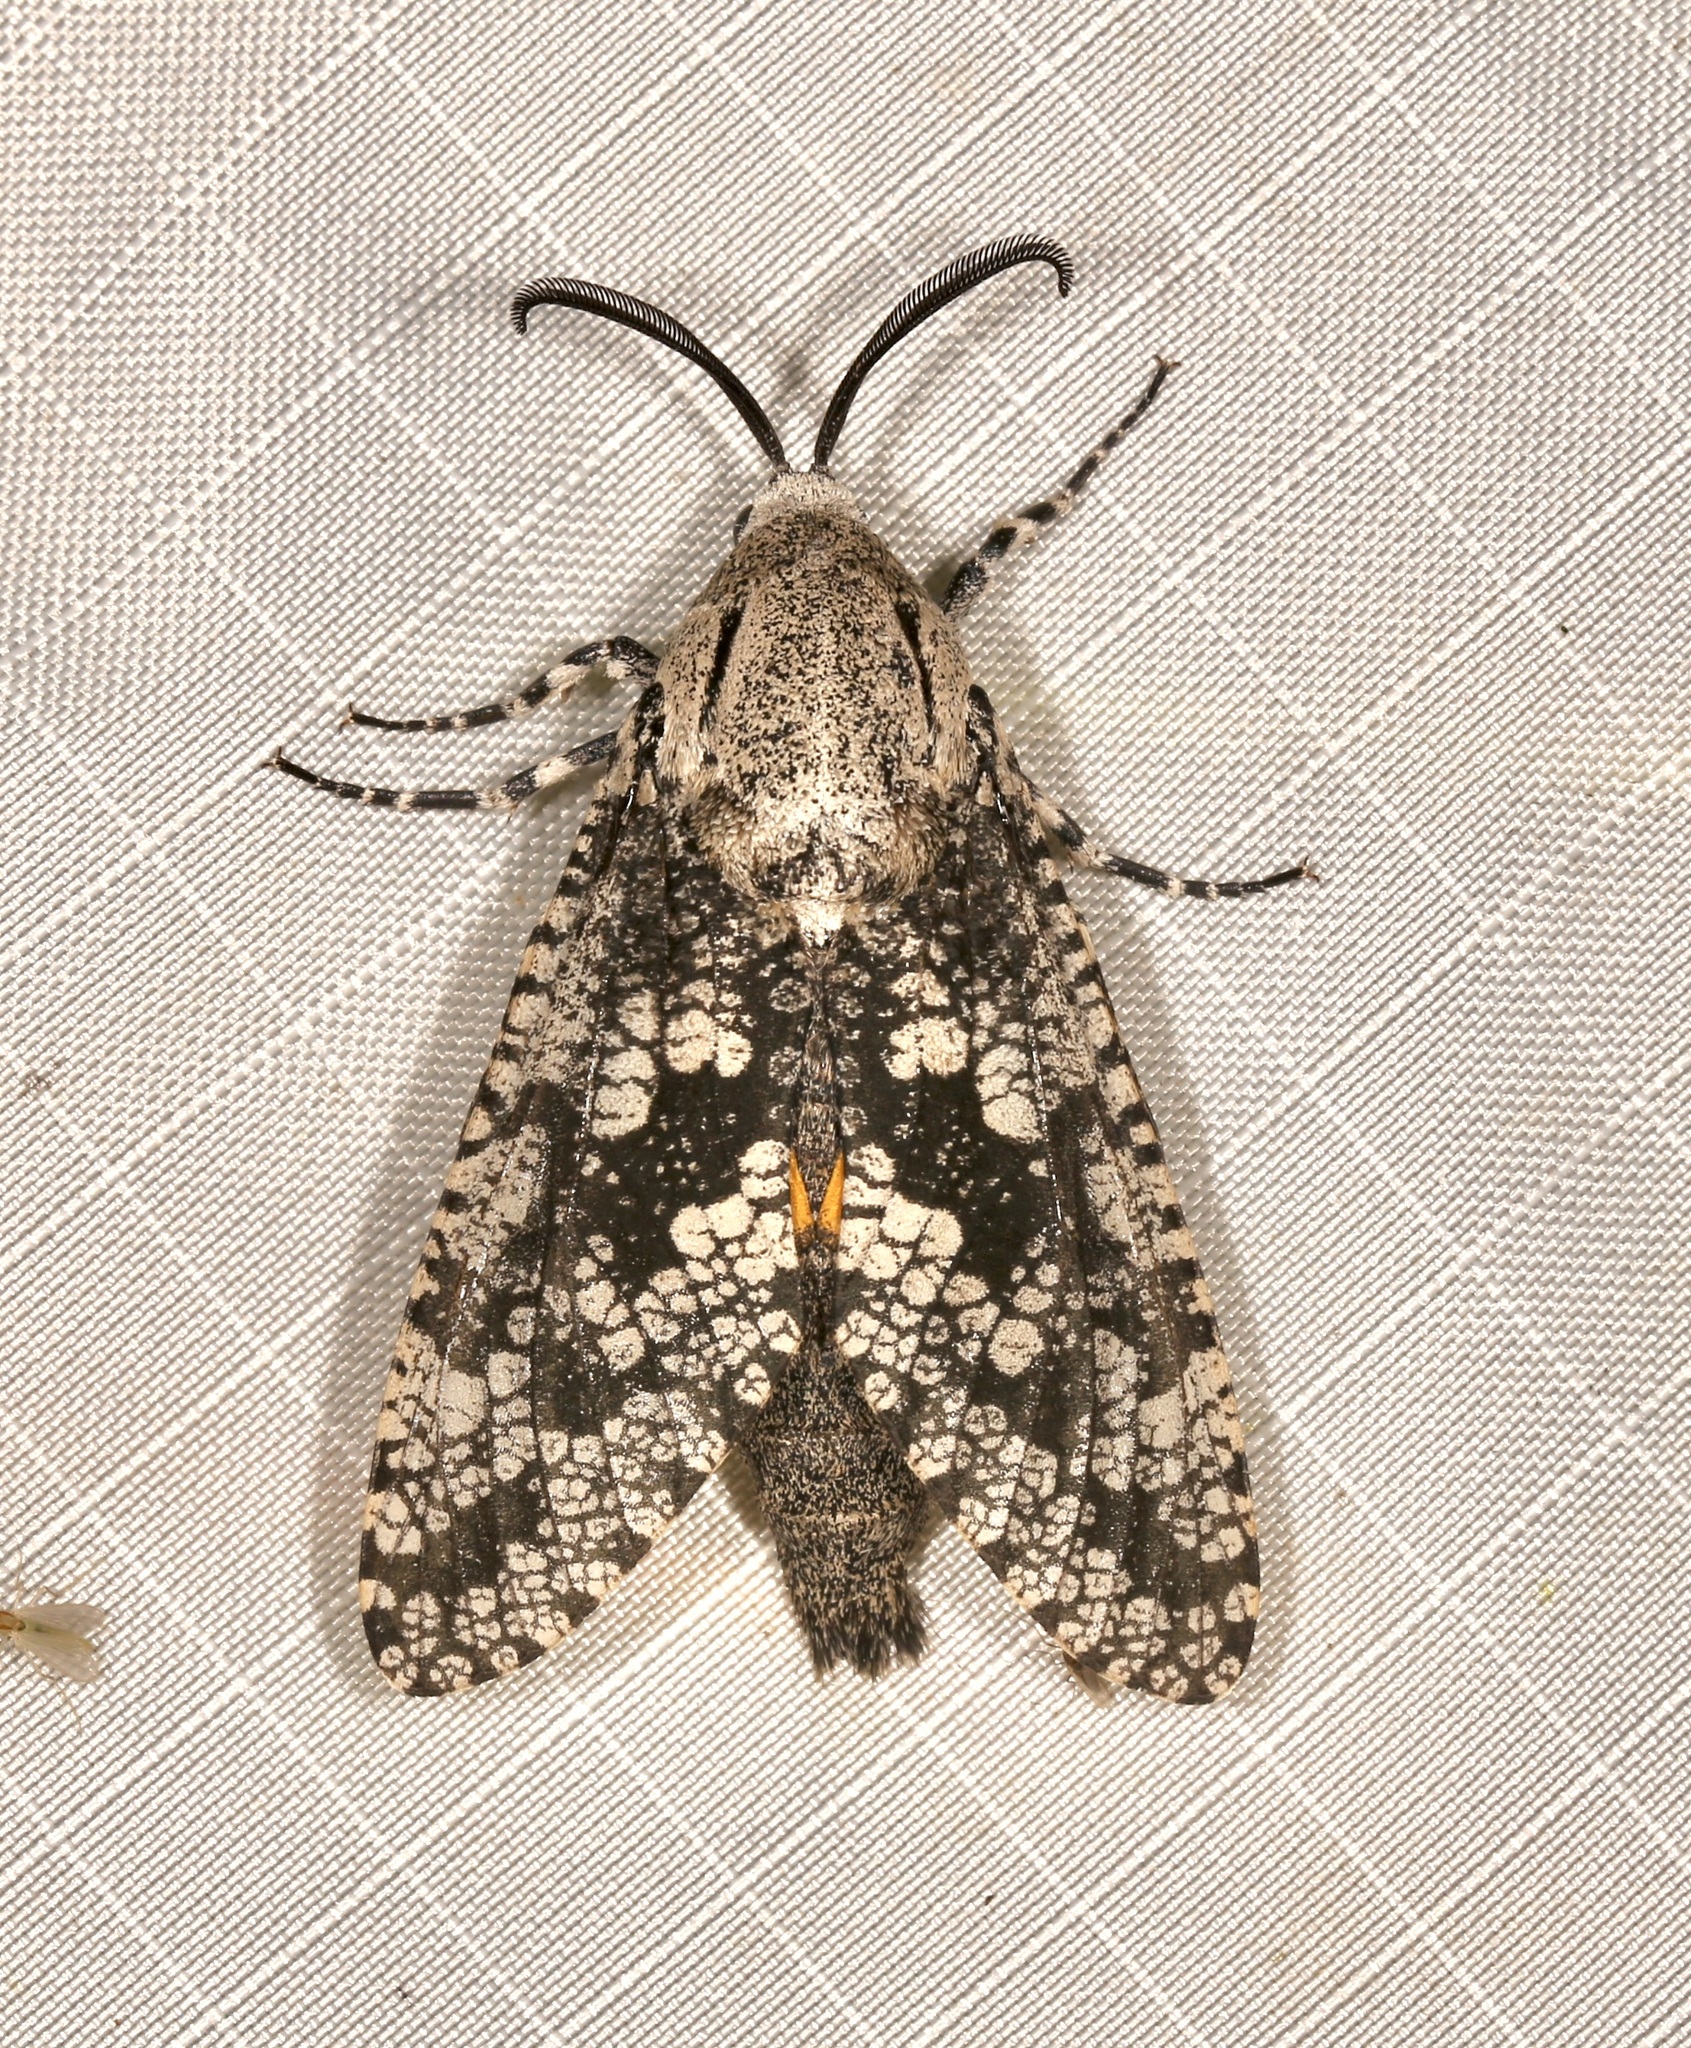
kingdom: Animalia
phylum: Arthropoda
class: Insecta
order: Lepidoptera
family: Cossidae
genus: Prionoxystus
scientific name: Prionoxystus robiniae
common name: Carpenterworm
